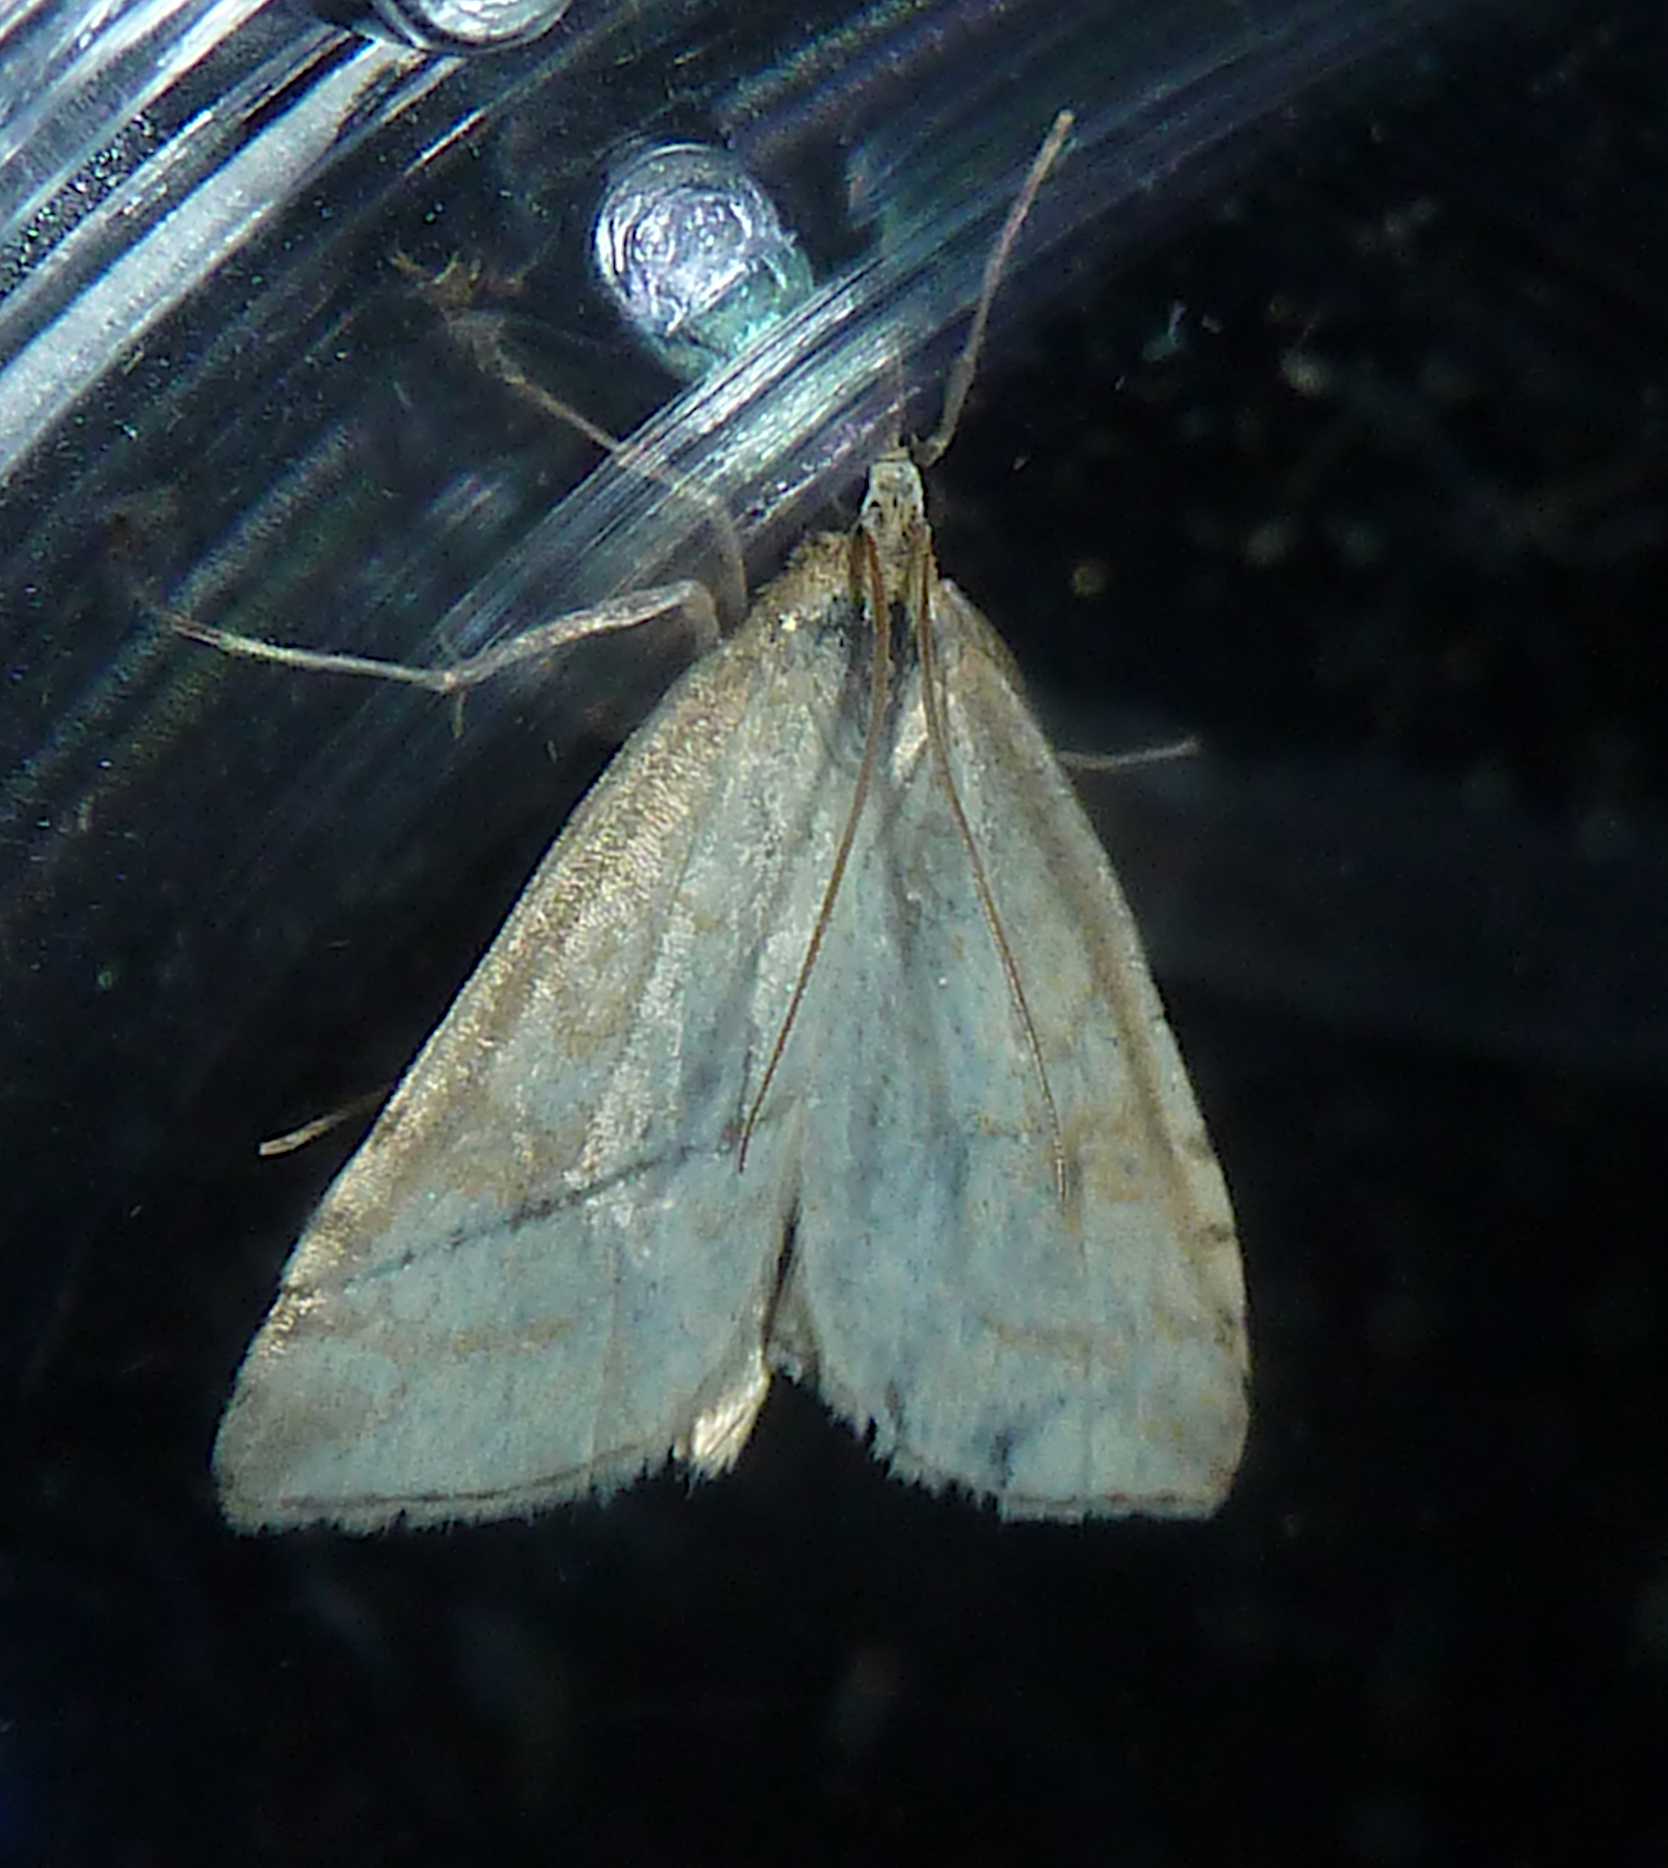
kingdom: Animalia
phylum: Arthropoda
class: Insecta
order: Lepidoptera
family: Crambidae
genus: Udea
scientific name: Udea lutealis
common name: Pale straw pearl
